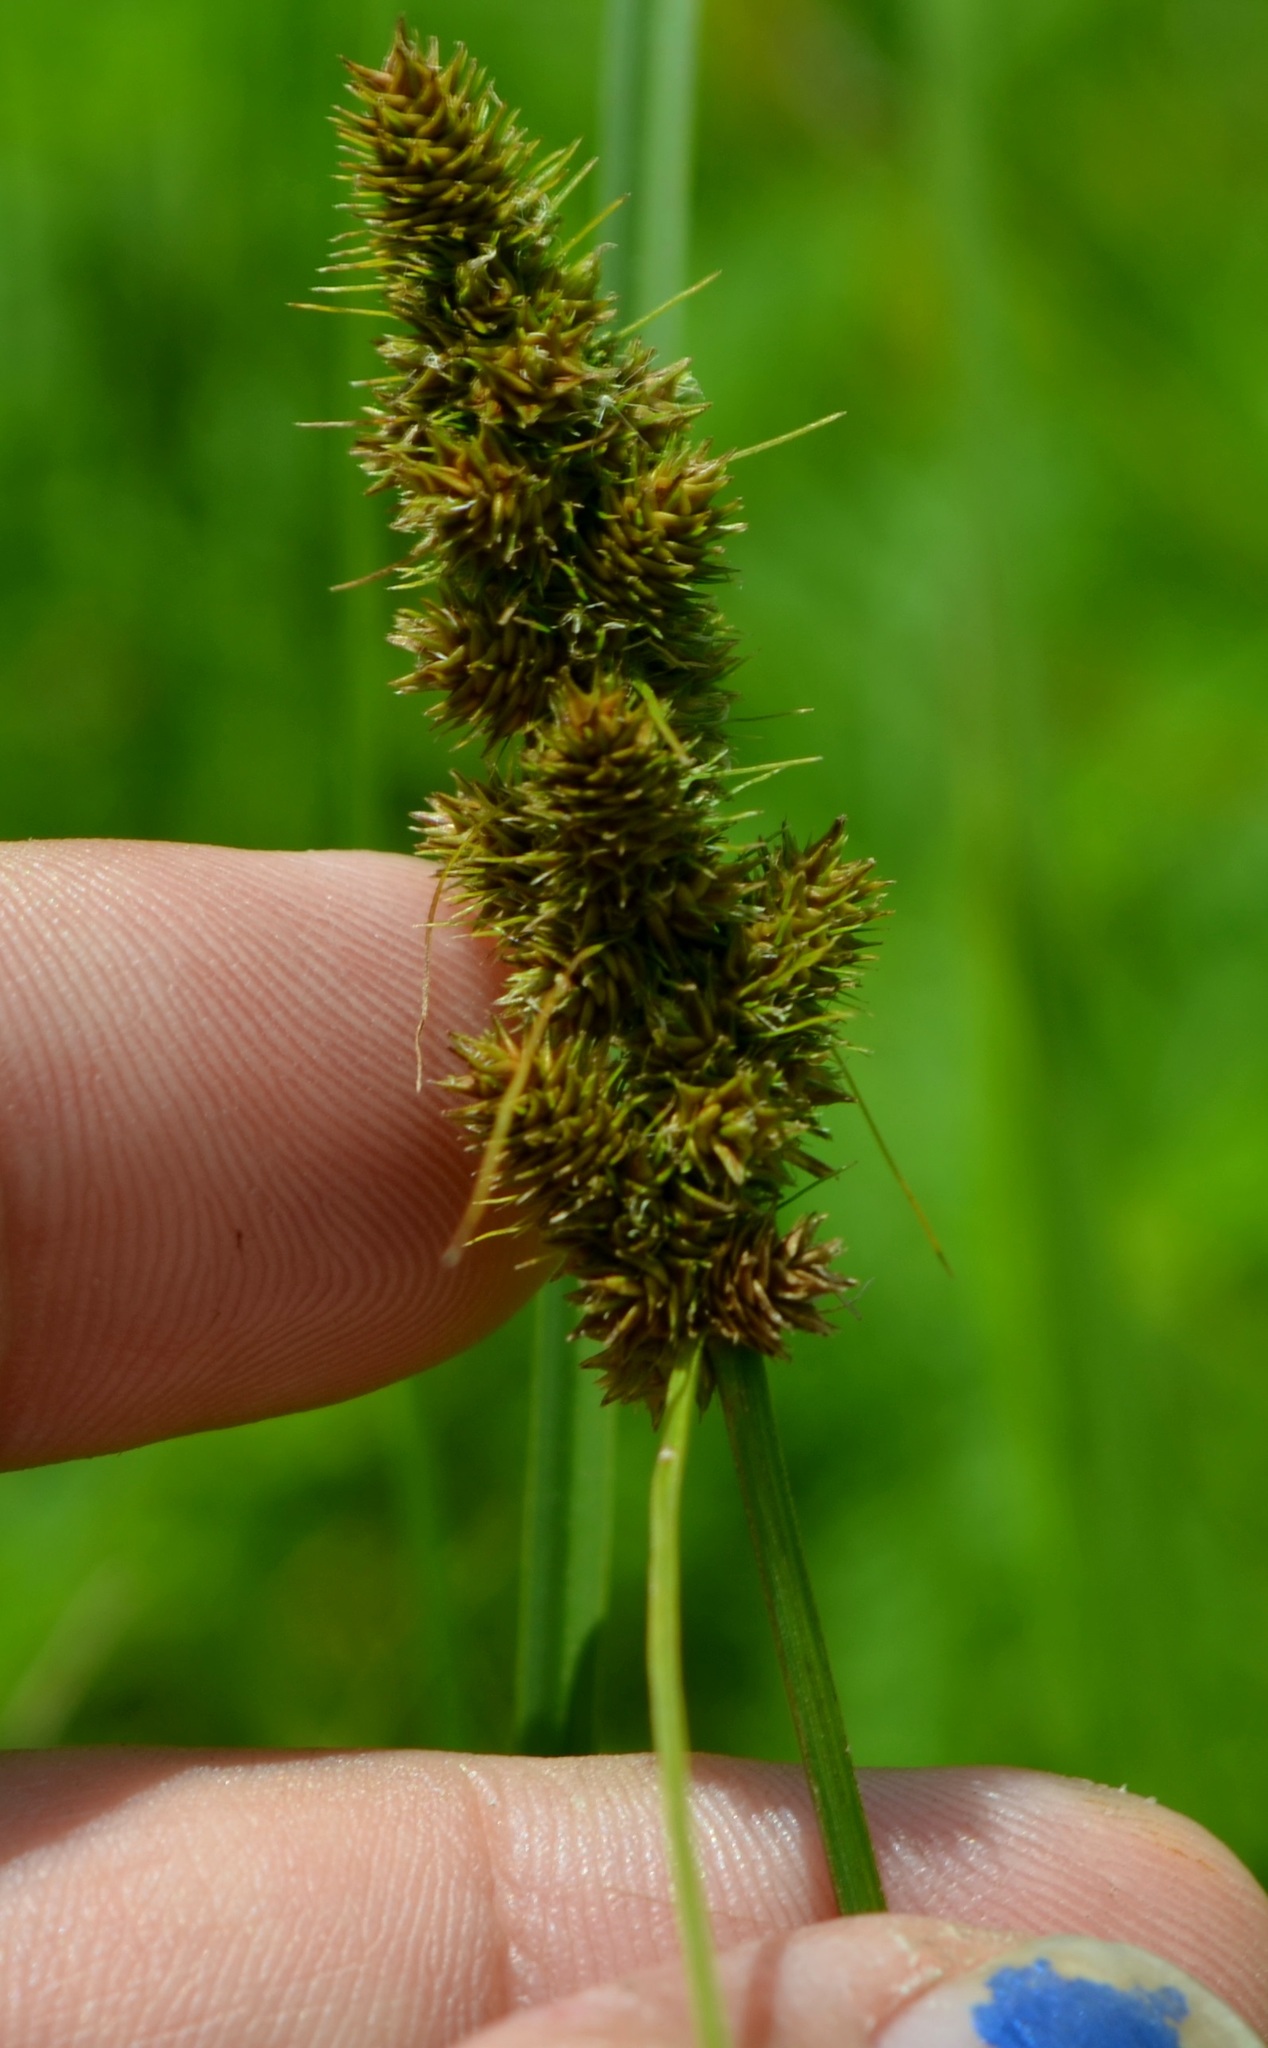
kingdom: Plantae
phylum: Tracheophyta
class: Liliopsida
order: Poales
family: Cyperaceae
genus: Carex
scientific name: Carex vulpinoidea
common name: American fox-sedge
